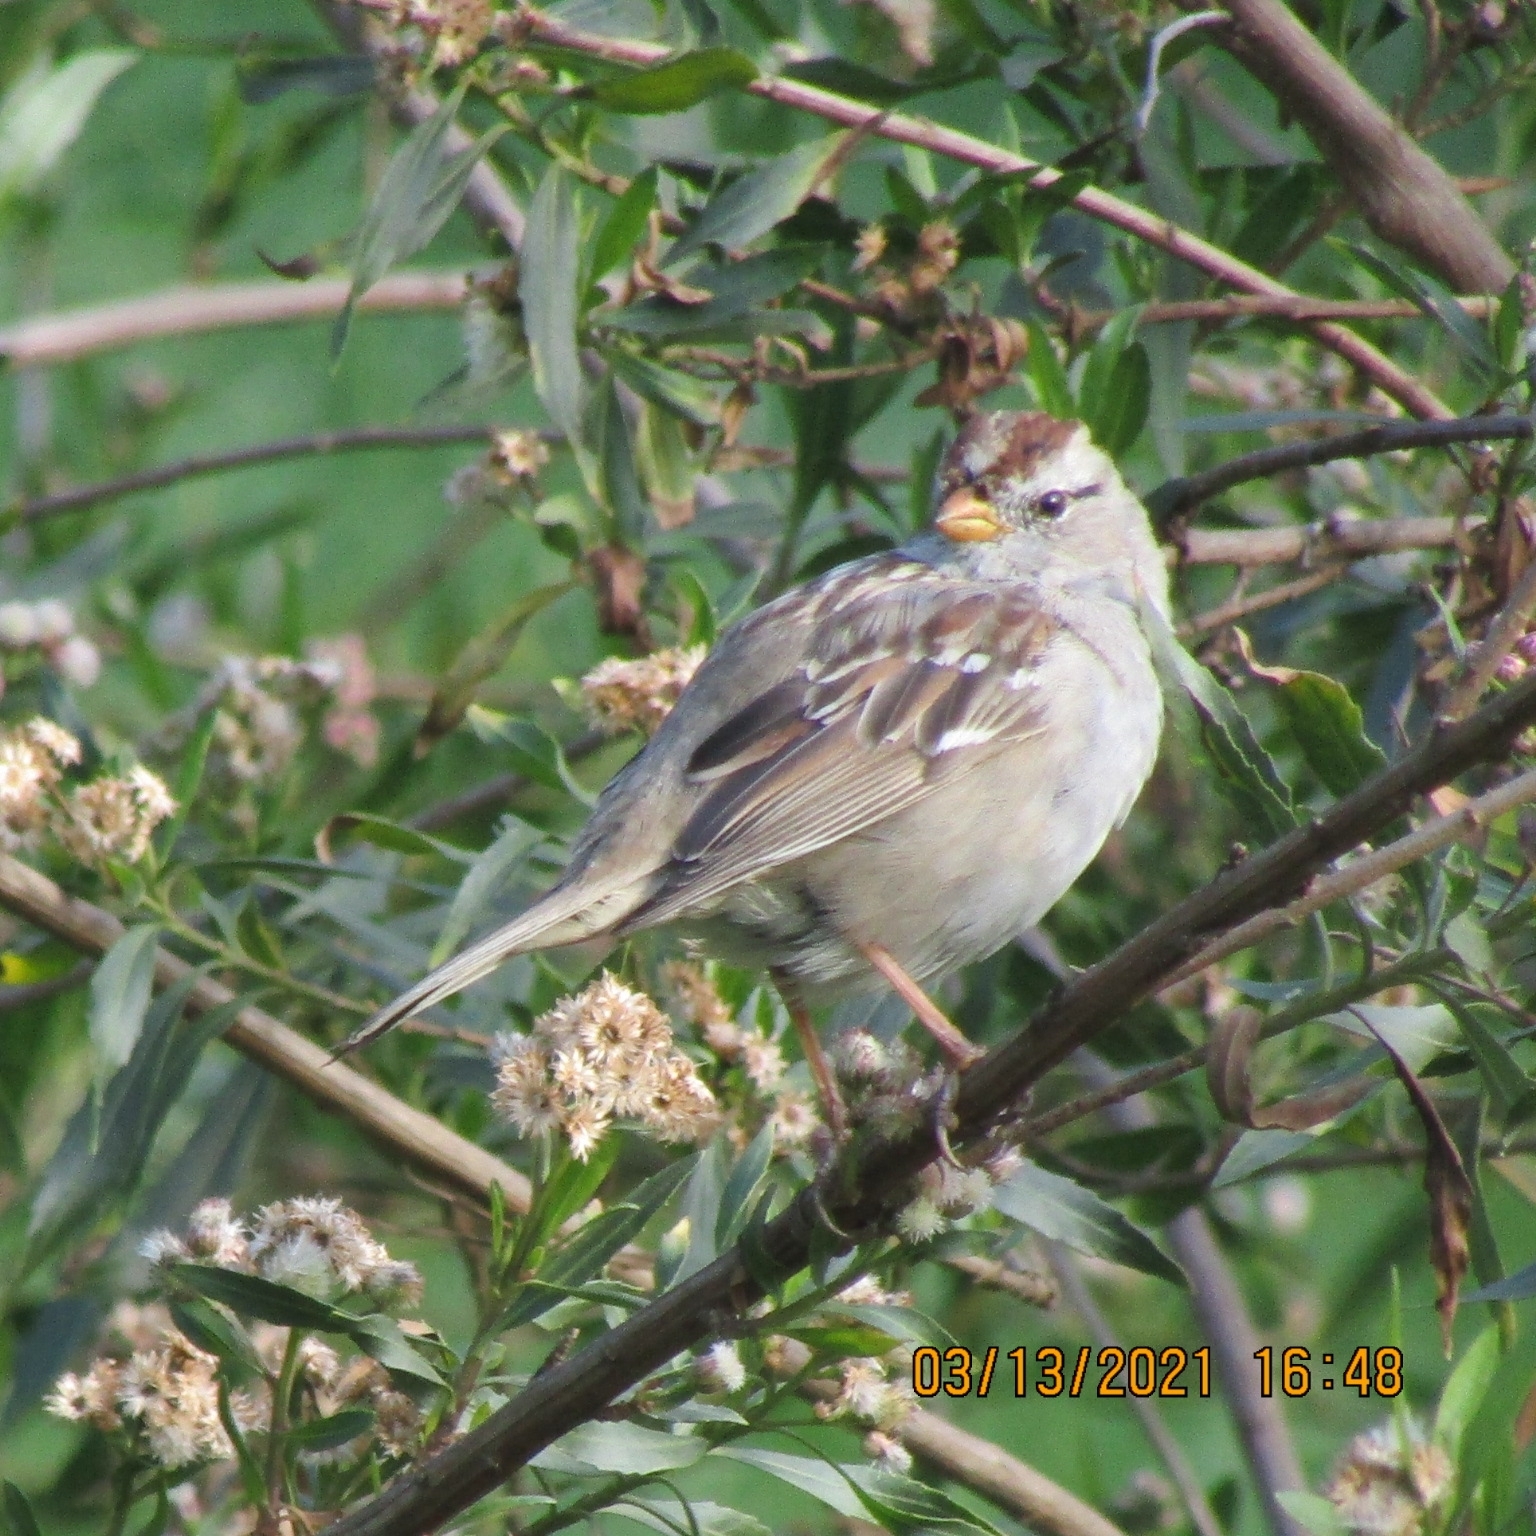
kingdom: Animalia
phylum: Chordata
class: Aves
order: Passeriformes
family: Passerellidae
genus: Zonotrichia
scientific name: Zonotrichia leucophrys
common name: White-crowned sparrow
